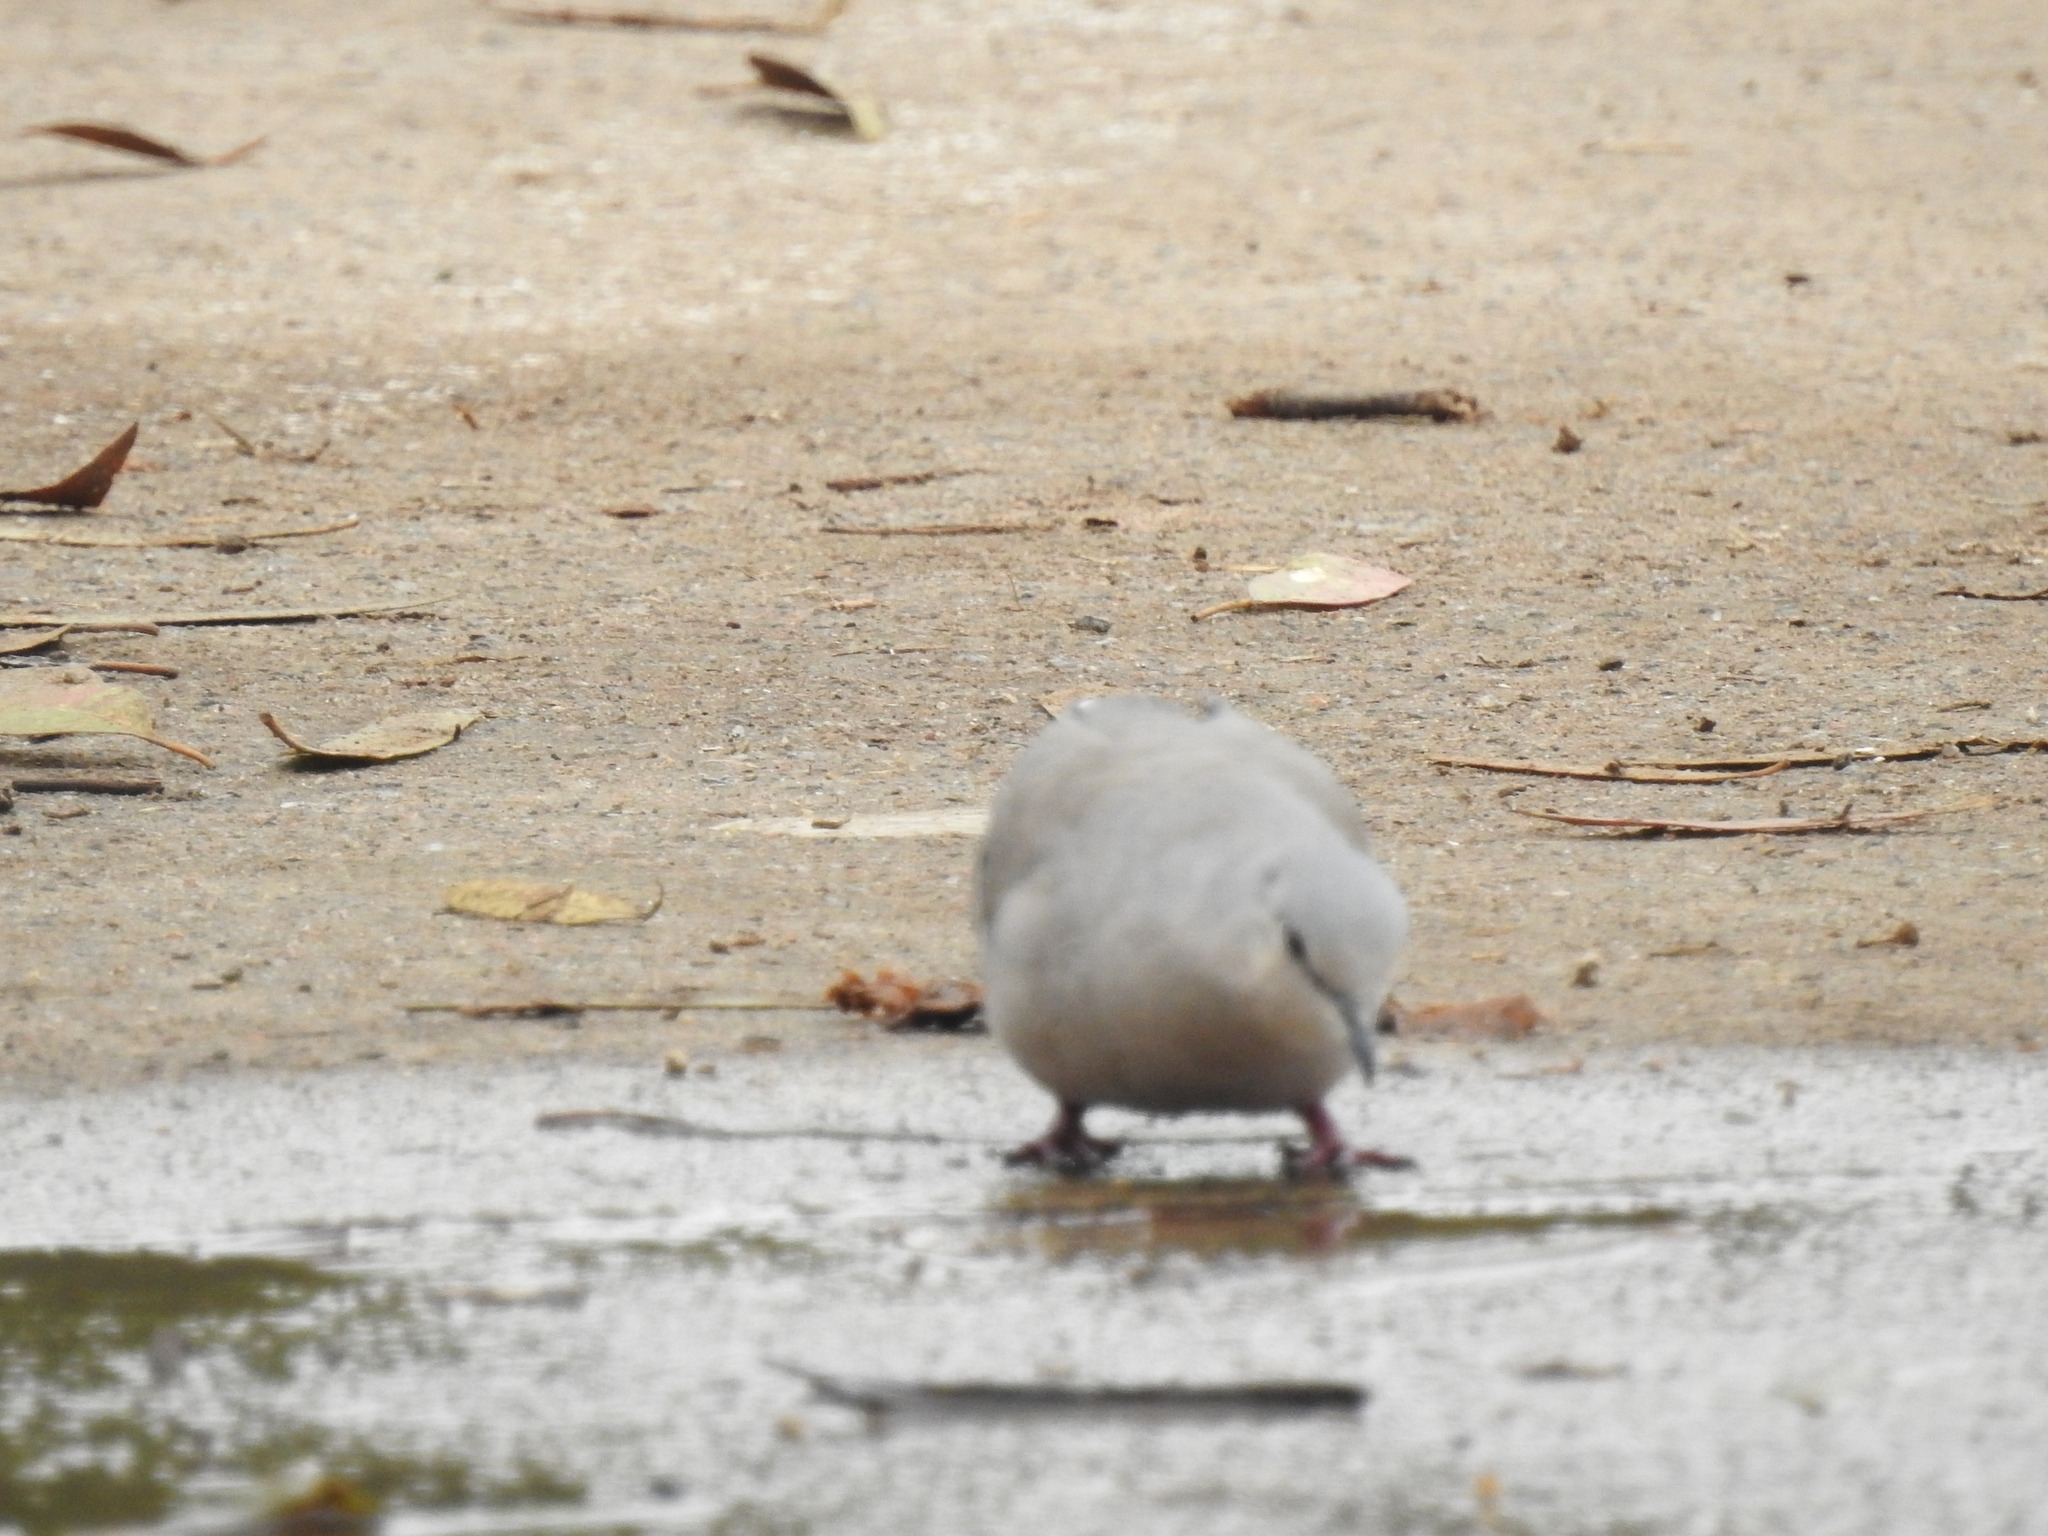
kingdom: Animalia
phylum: Chordata
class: Aves
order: Columbiformes
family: Columbidae
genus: Columbina
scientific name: Columbina picui
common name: Picui ground dove
